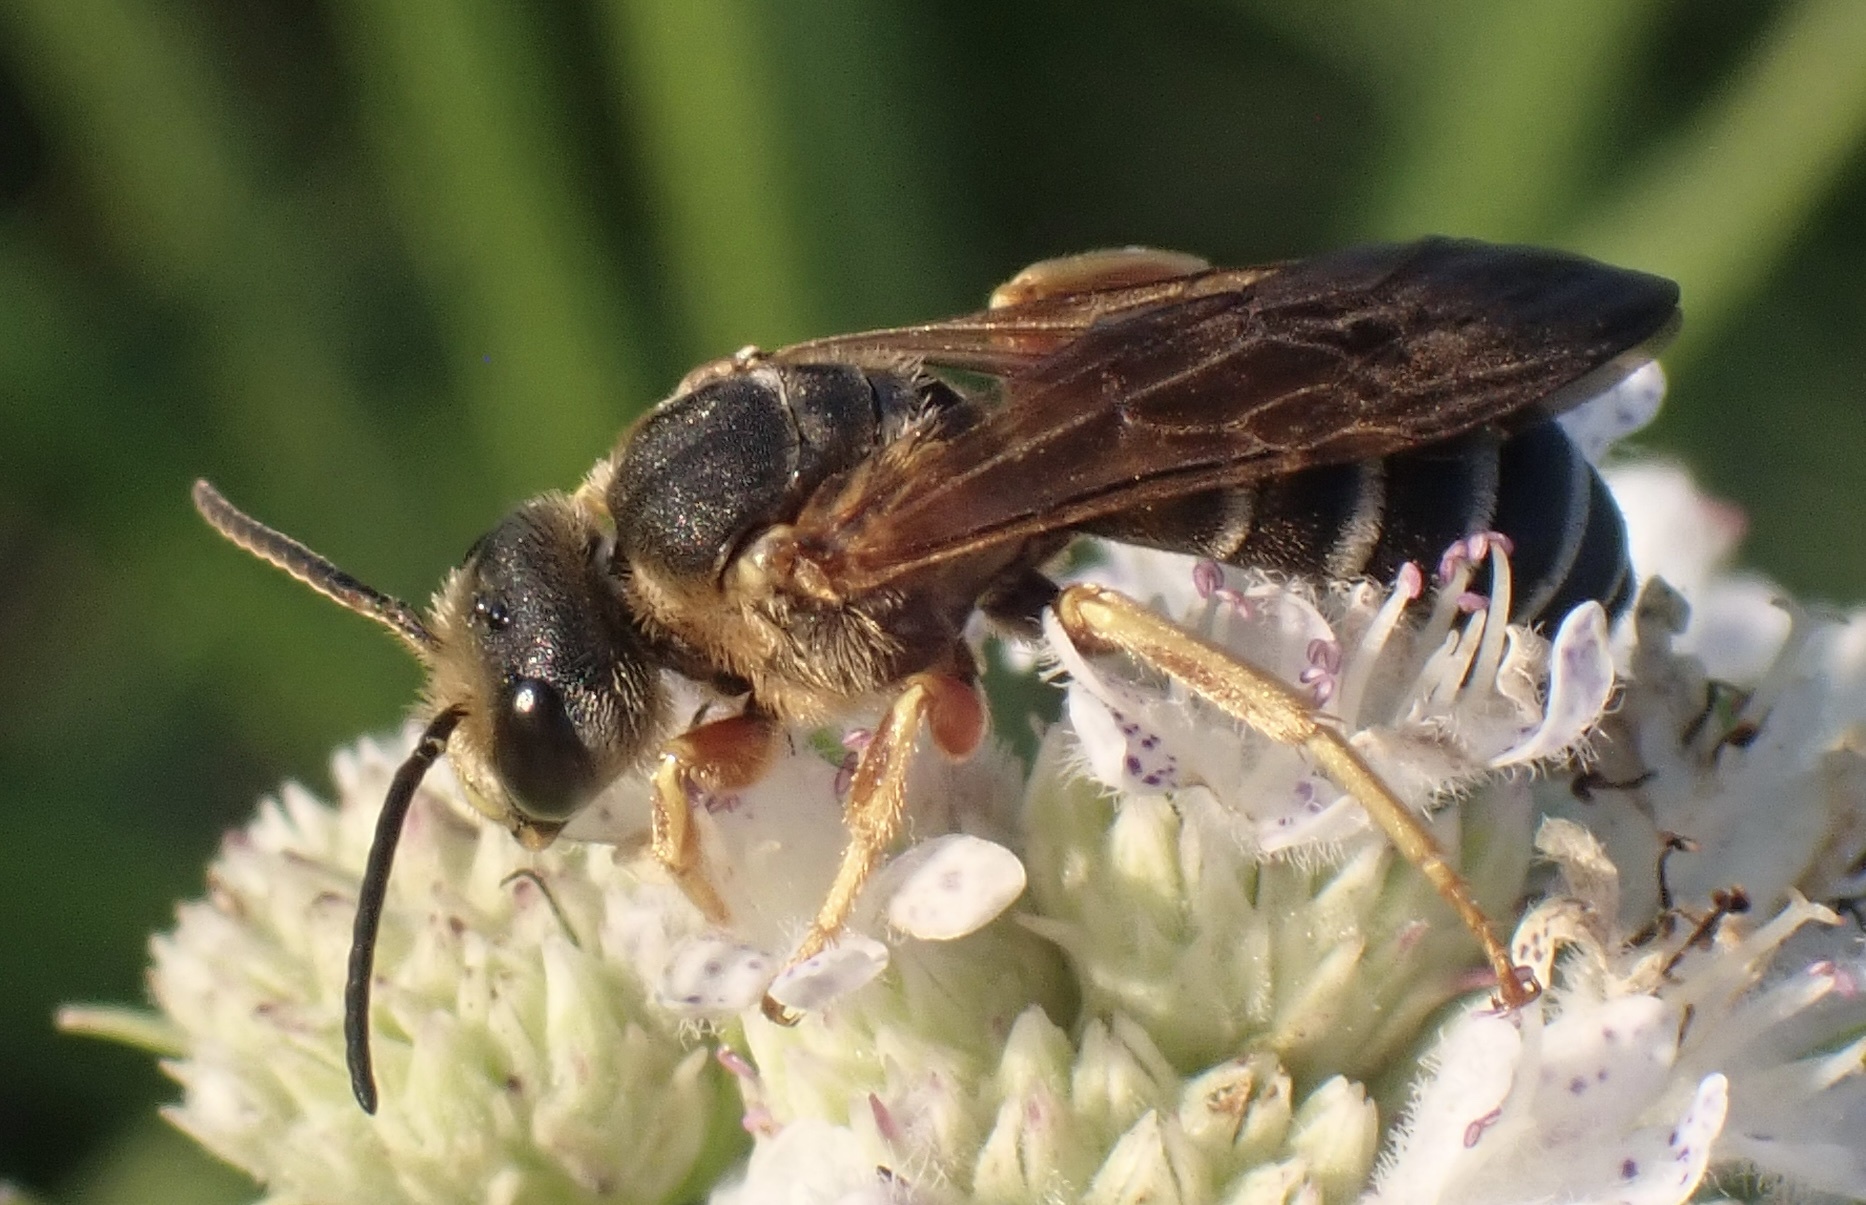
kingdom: Animalia
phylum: Arthropoda
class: Insecta
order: Hymenoptera
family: Halictidae
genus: Halictus
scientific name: Halictus parallelus
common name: Parallel-striped sweat bee
